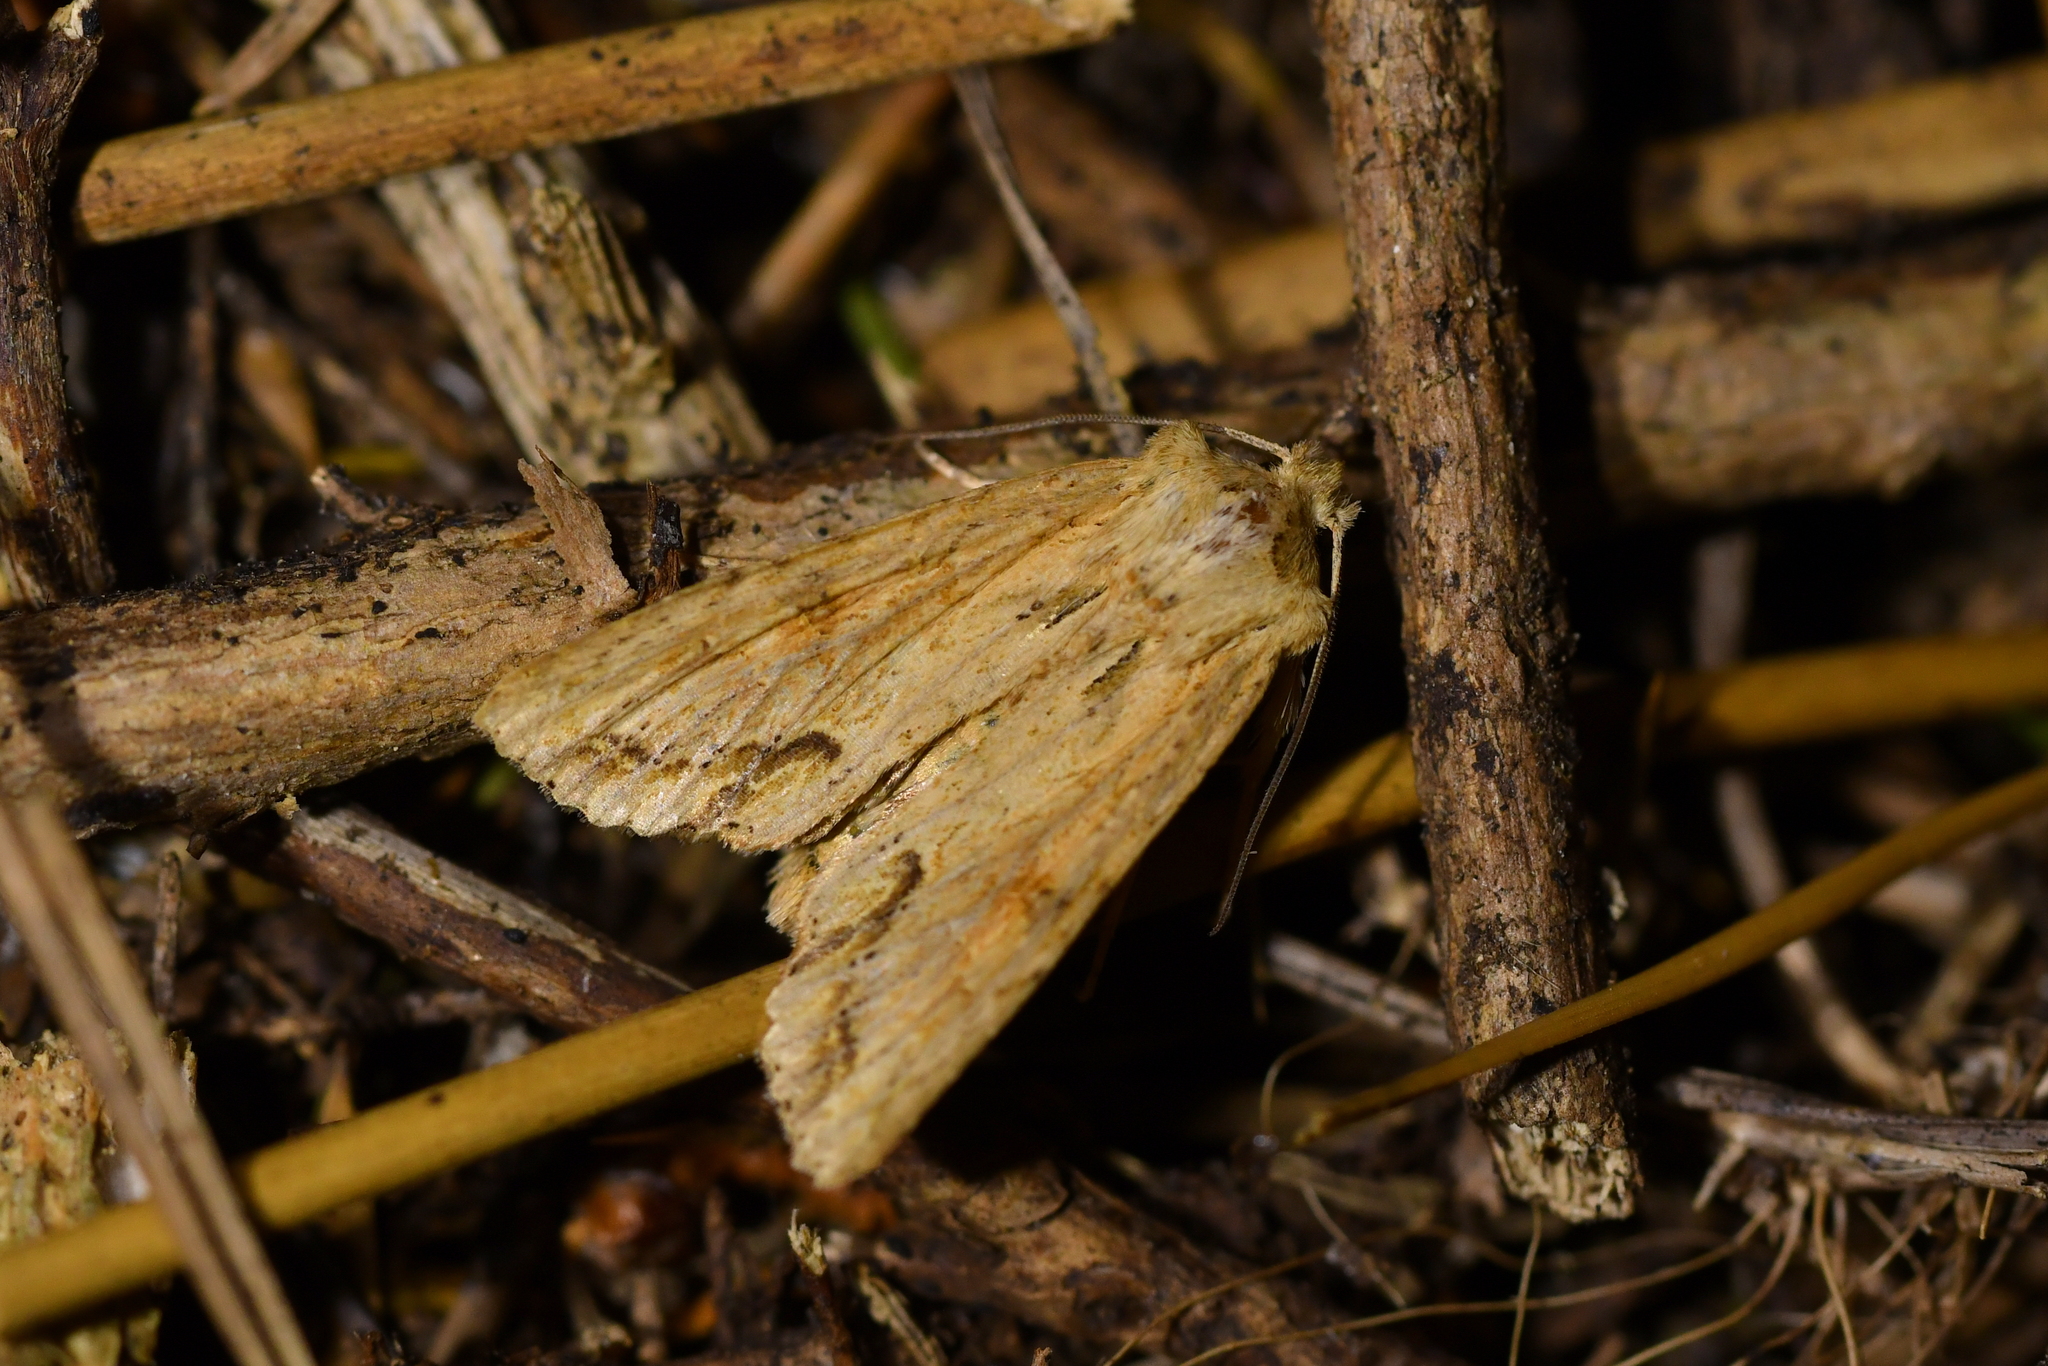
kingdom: Animalia
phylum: Arthropoda
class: Insecta
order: Lepidoptera
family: Noctuidae
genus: Ichneutica
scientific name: Ichneutica mollis
